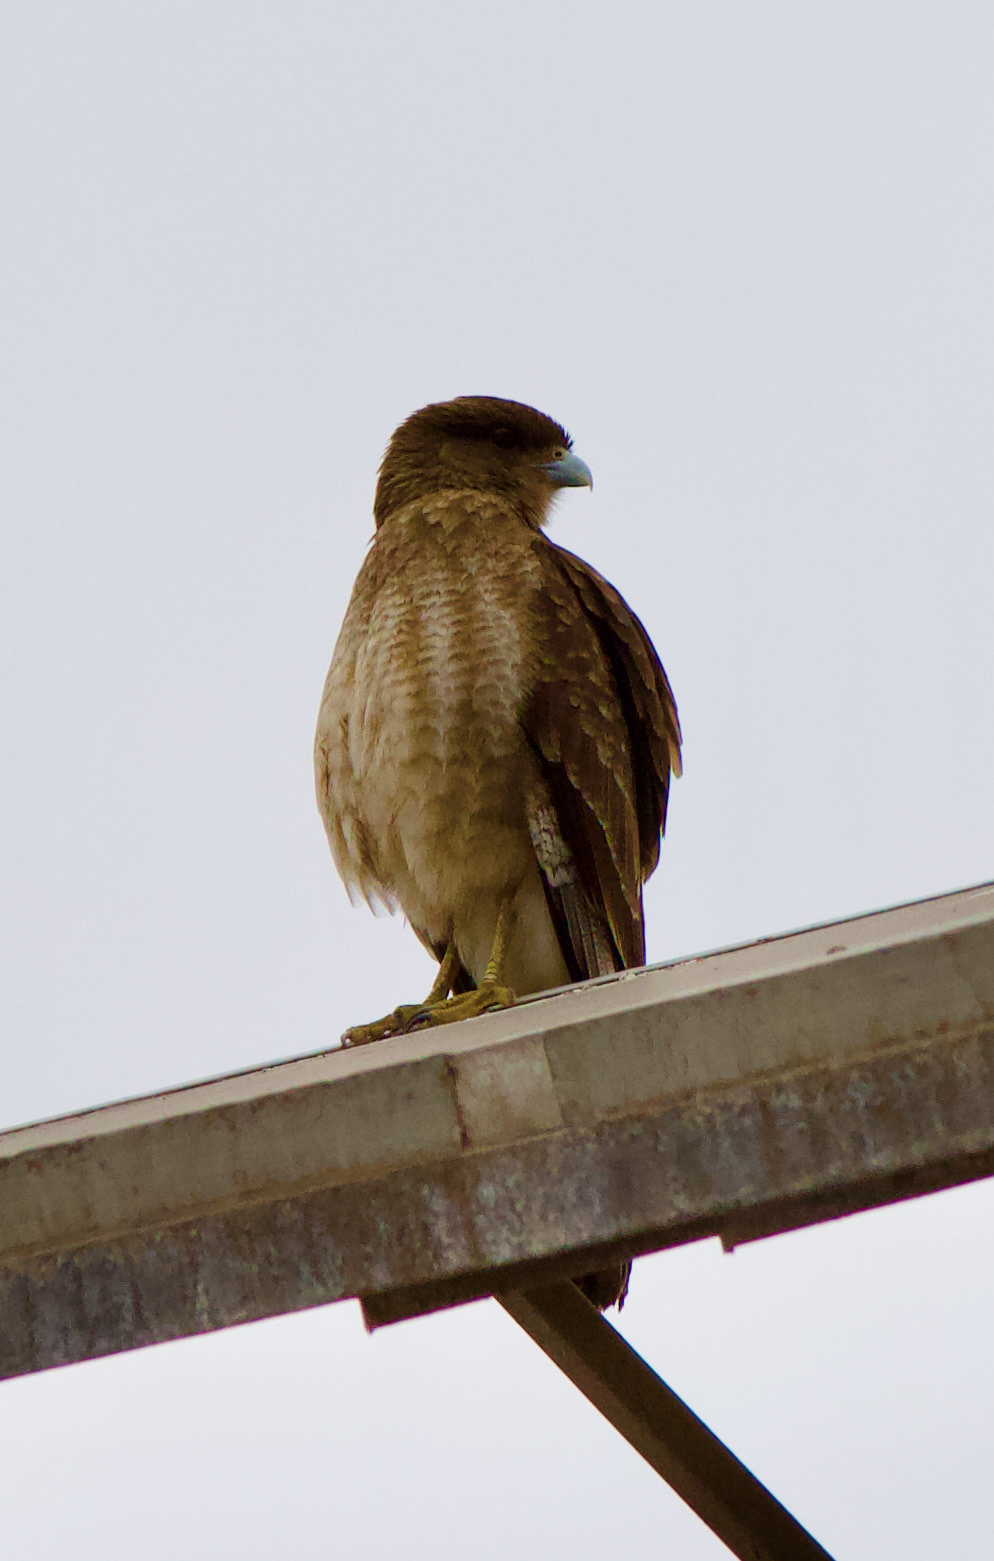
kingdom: Animalia
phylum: Chordata
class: Aves
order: Falconiformes
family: Falconidae
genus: Daptrius
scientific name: Daptrius
